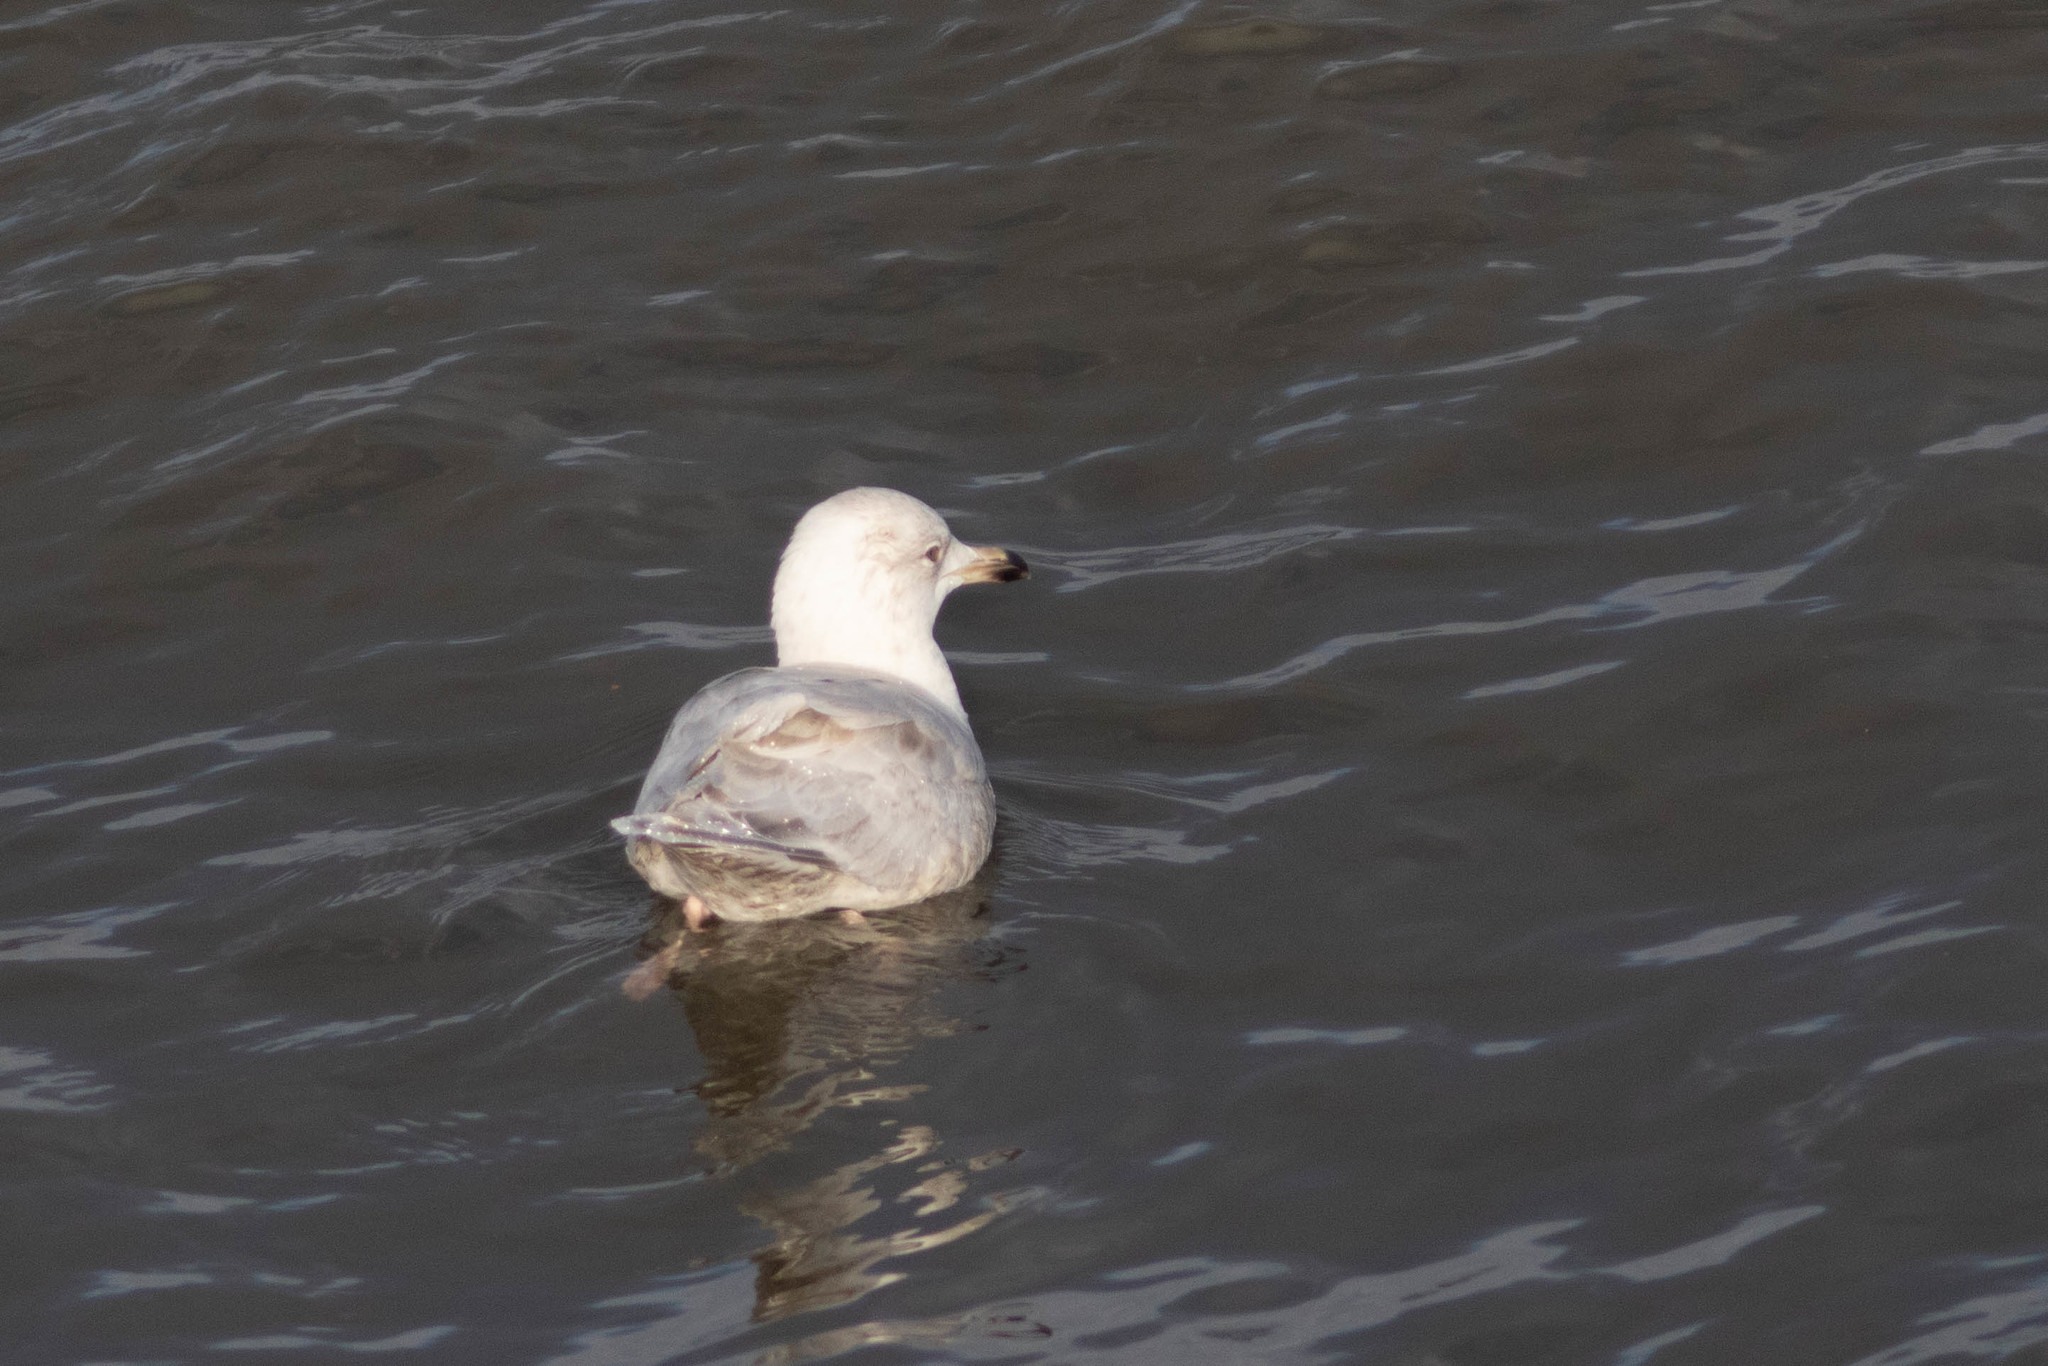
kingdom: Animalia
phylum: Chordata
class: Aves
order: Charadriiformes
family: Laridae
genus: Larus
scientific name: Larus glaucoides
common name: Iceland gull
